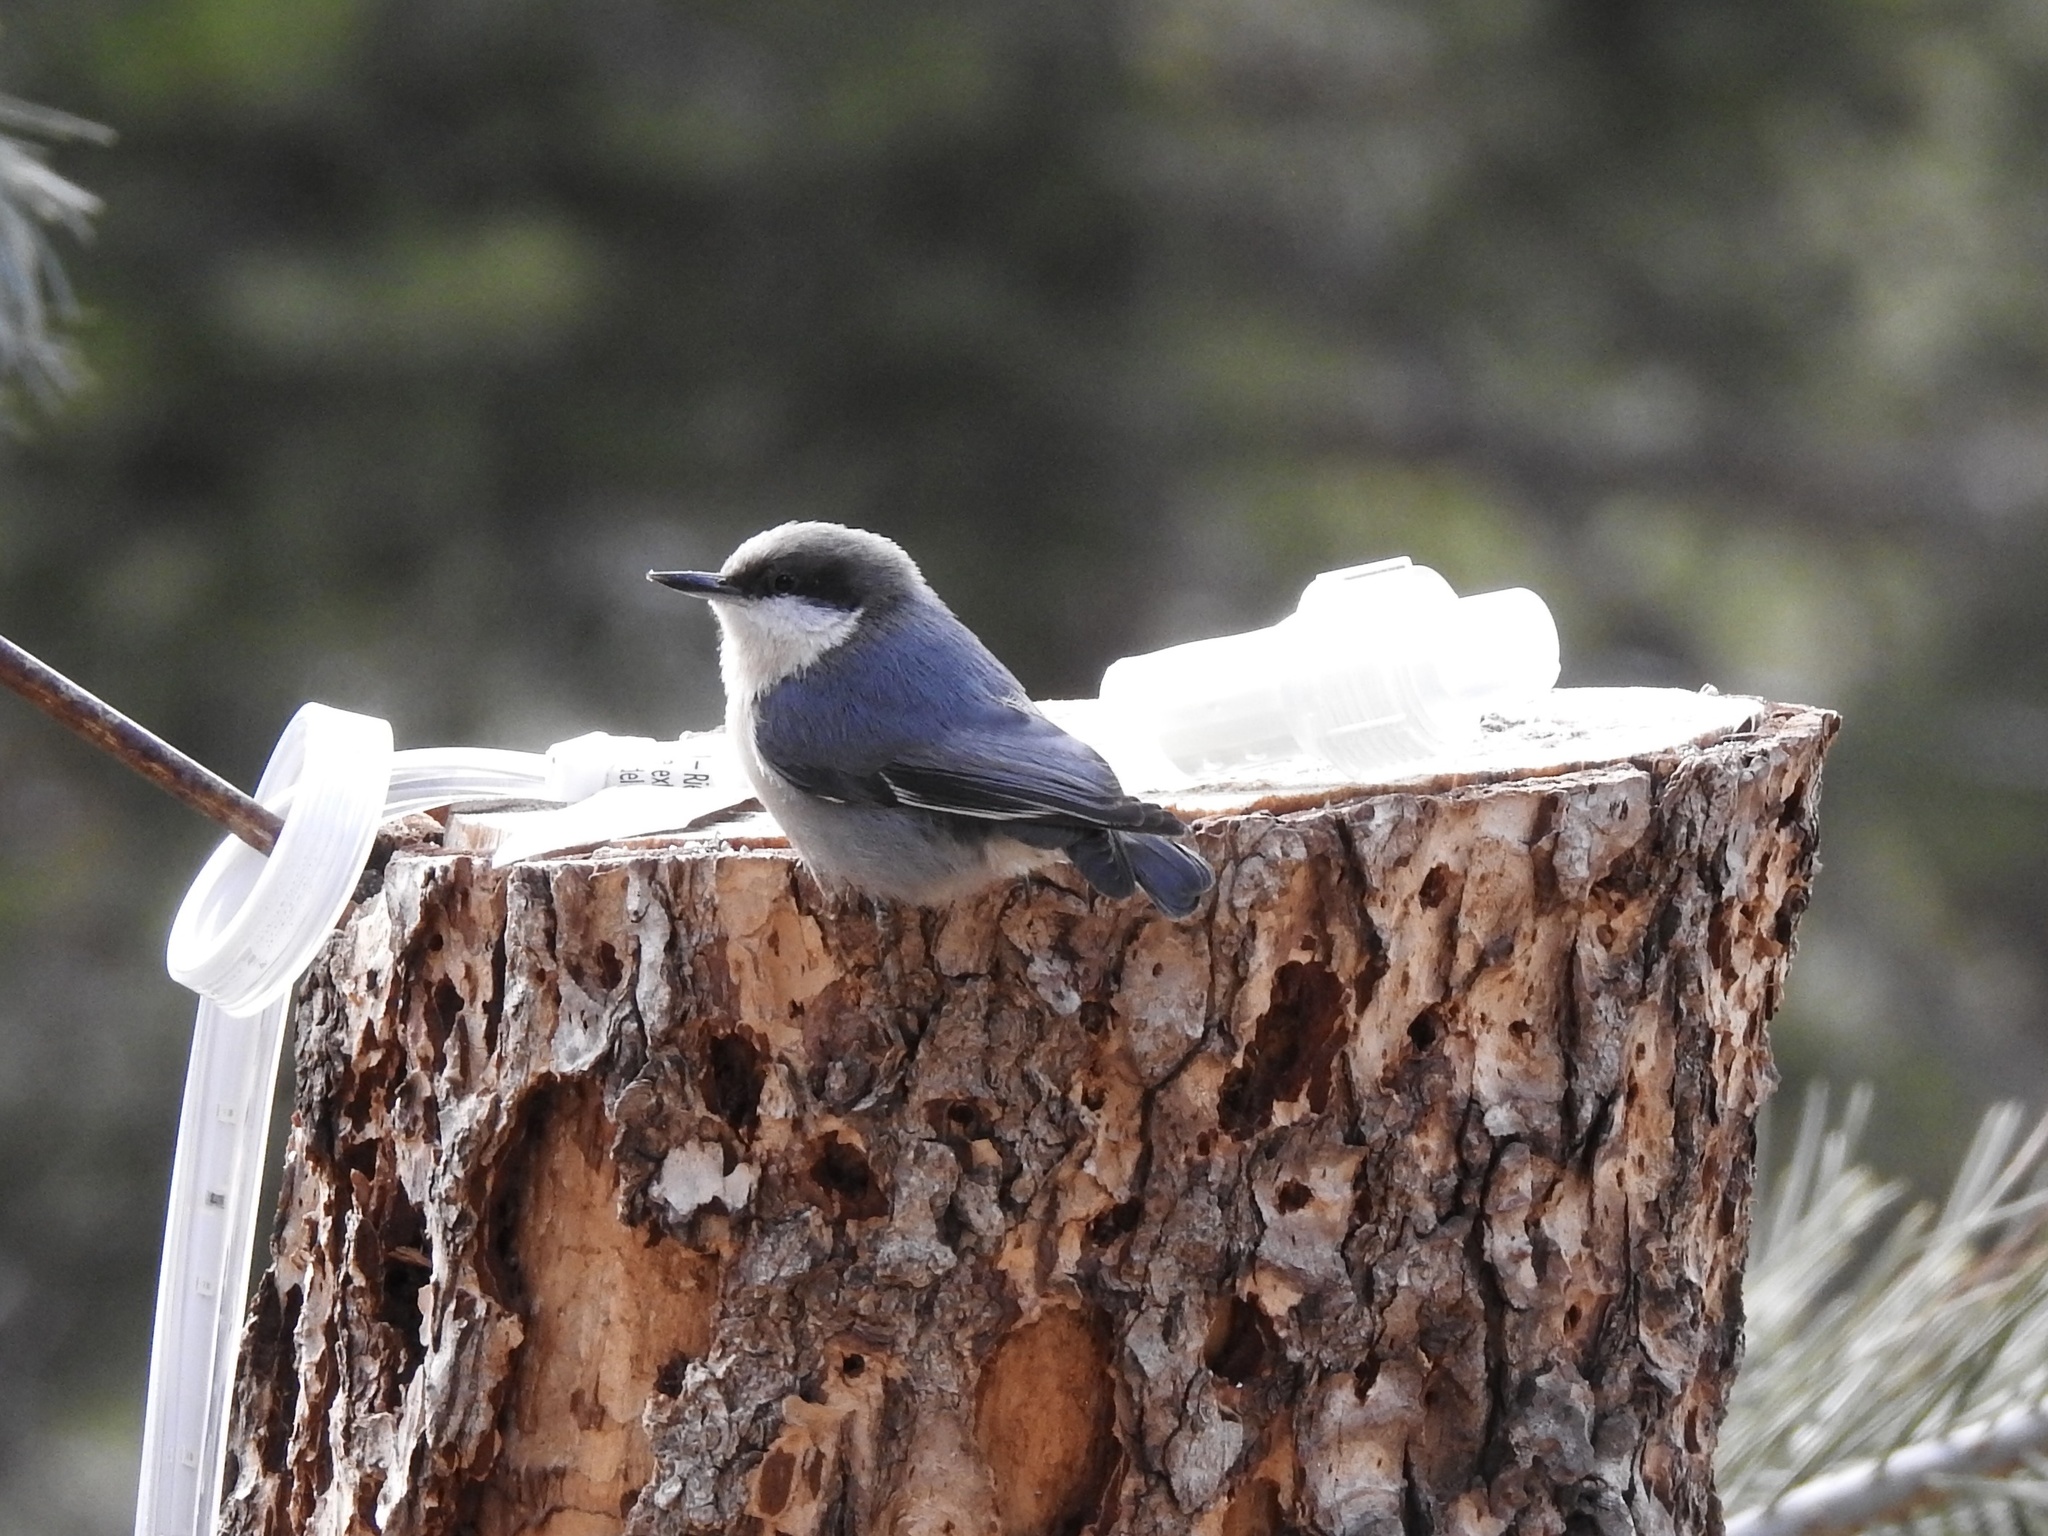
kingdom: Animalia
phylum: Chordata
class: Aves
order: Passeriformes
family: Sittidae
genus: Sitta
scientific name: Sitta pygmaea
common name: Pygmy nuthatch
